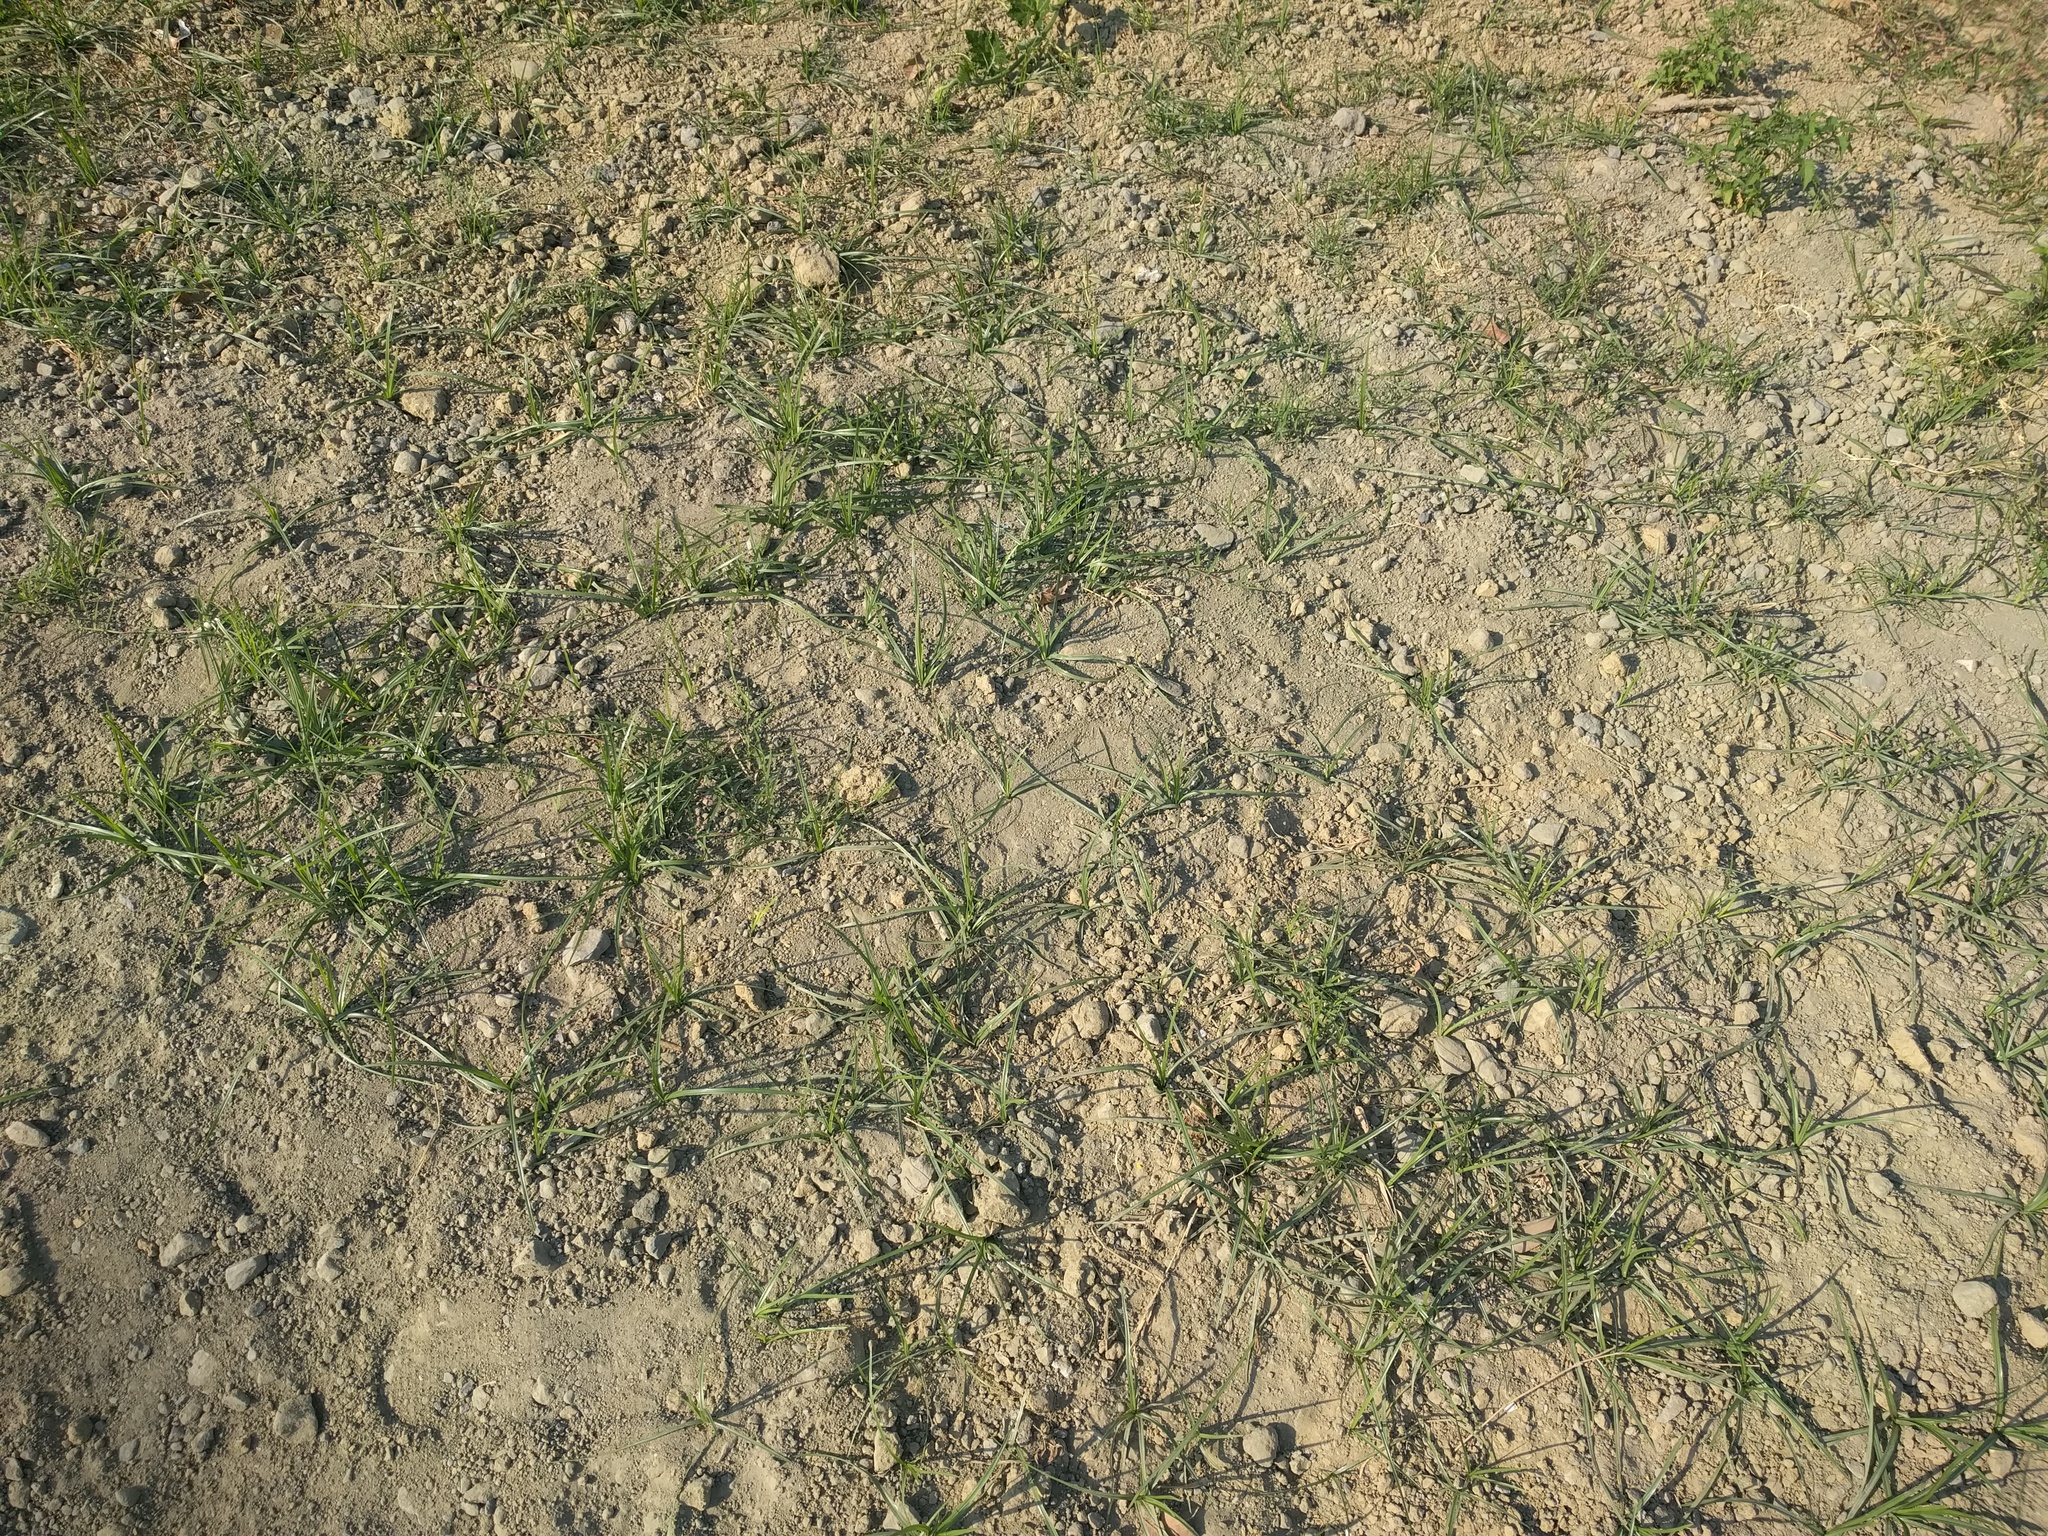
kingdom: Plantae
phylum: Tracheophyta
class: Liliopsida
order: Poales
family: Cyperaceae
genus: Cyperus
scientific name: Cyperus rotundus
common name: Nutgrass
